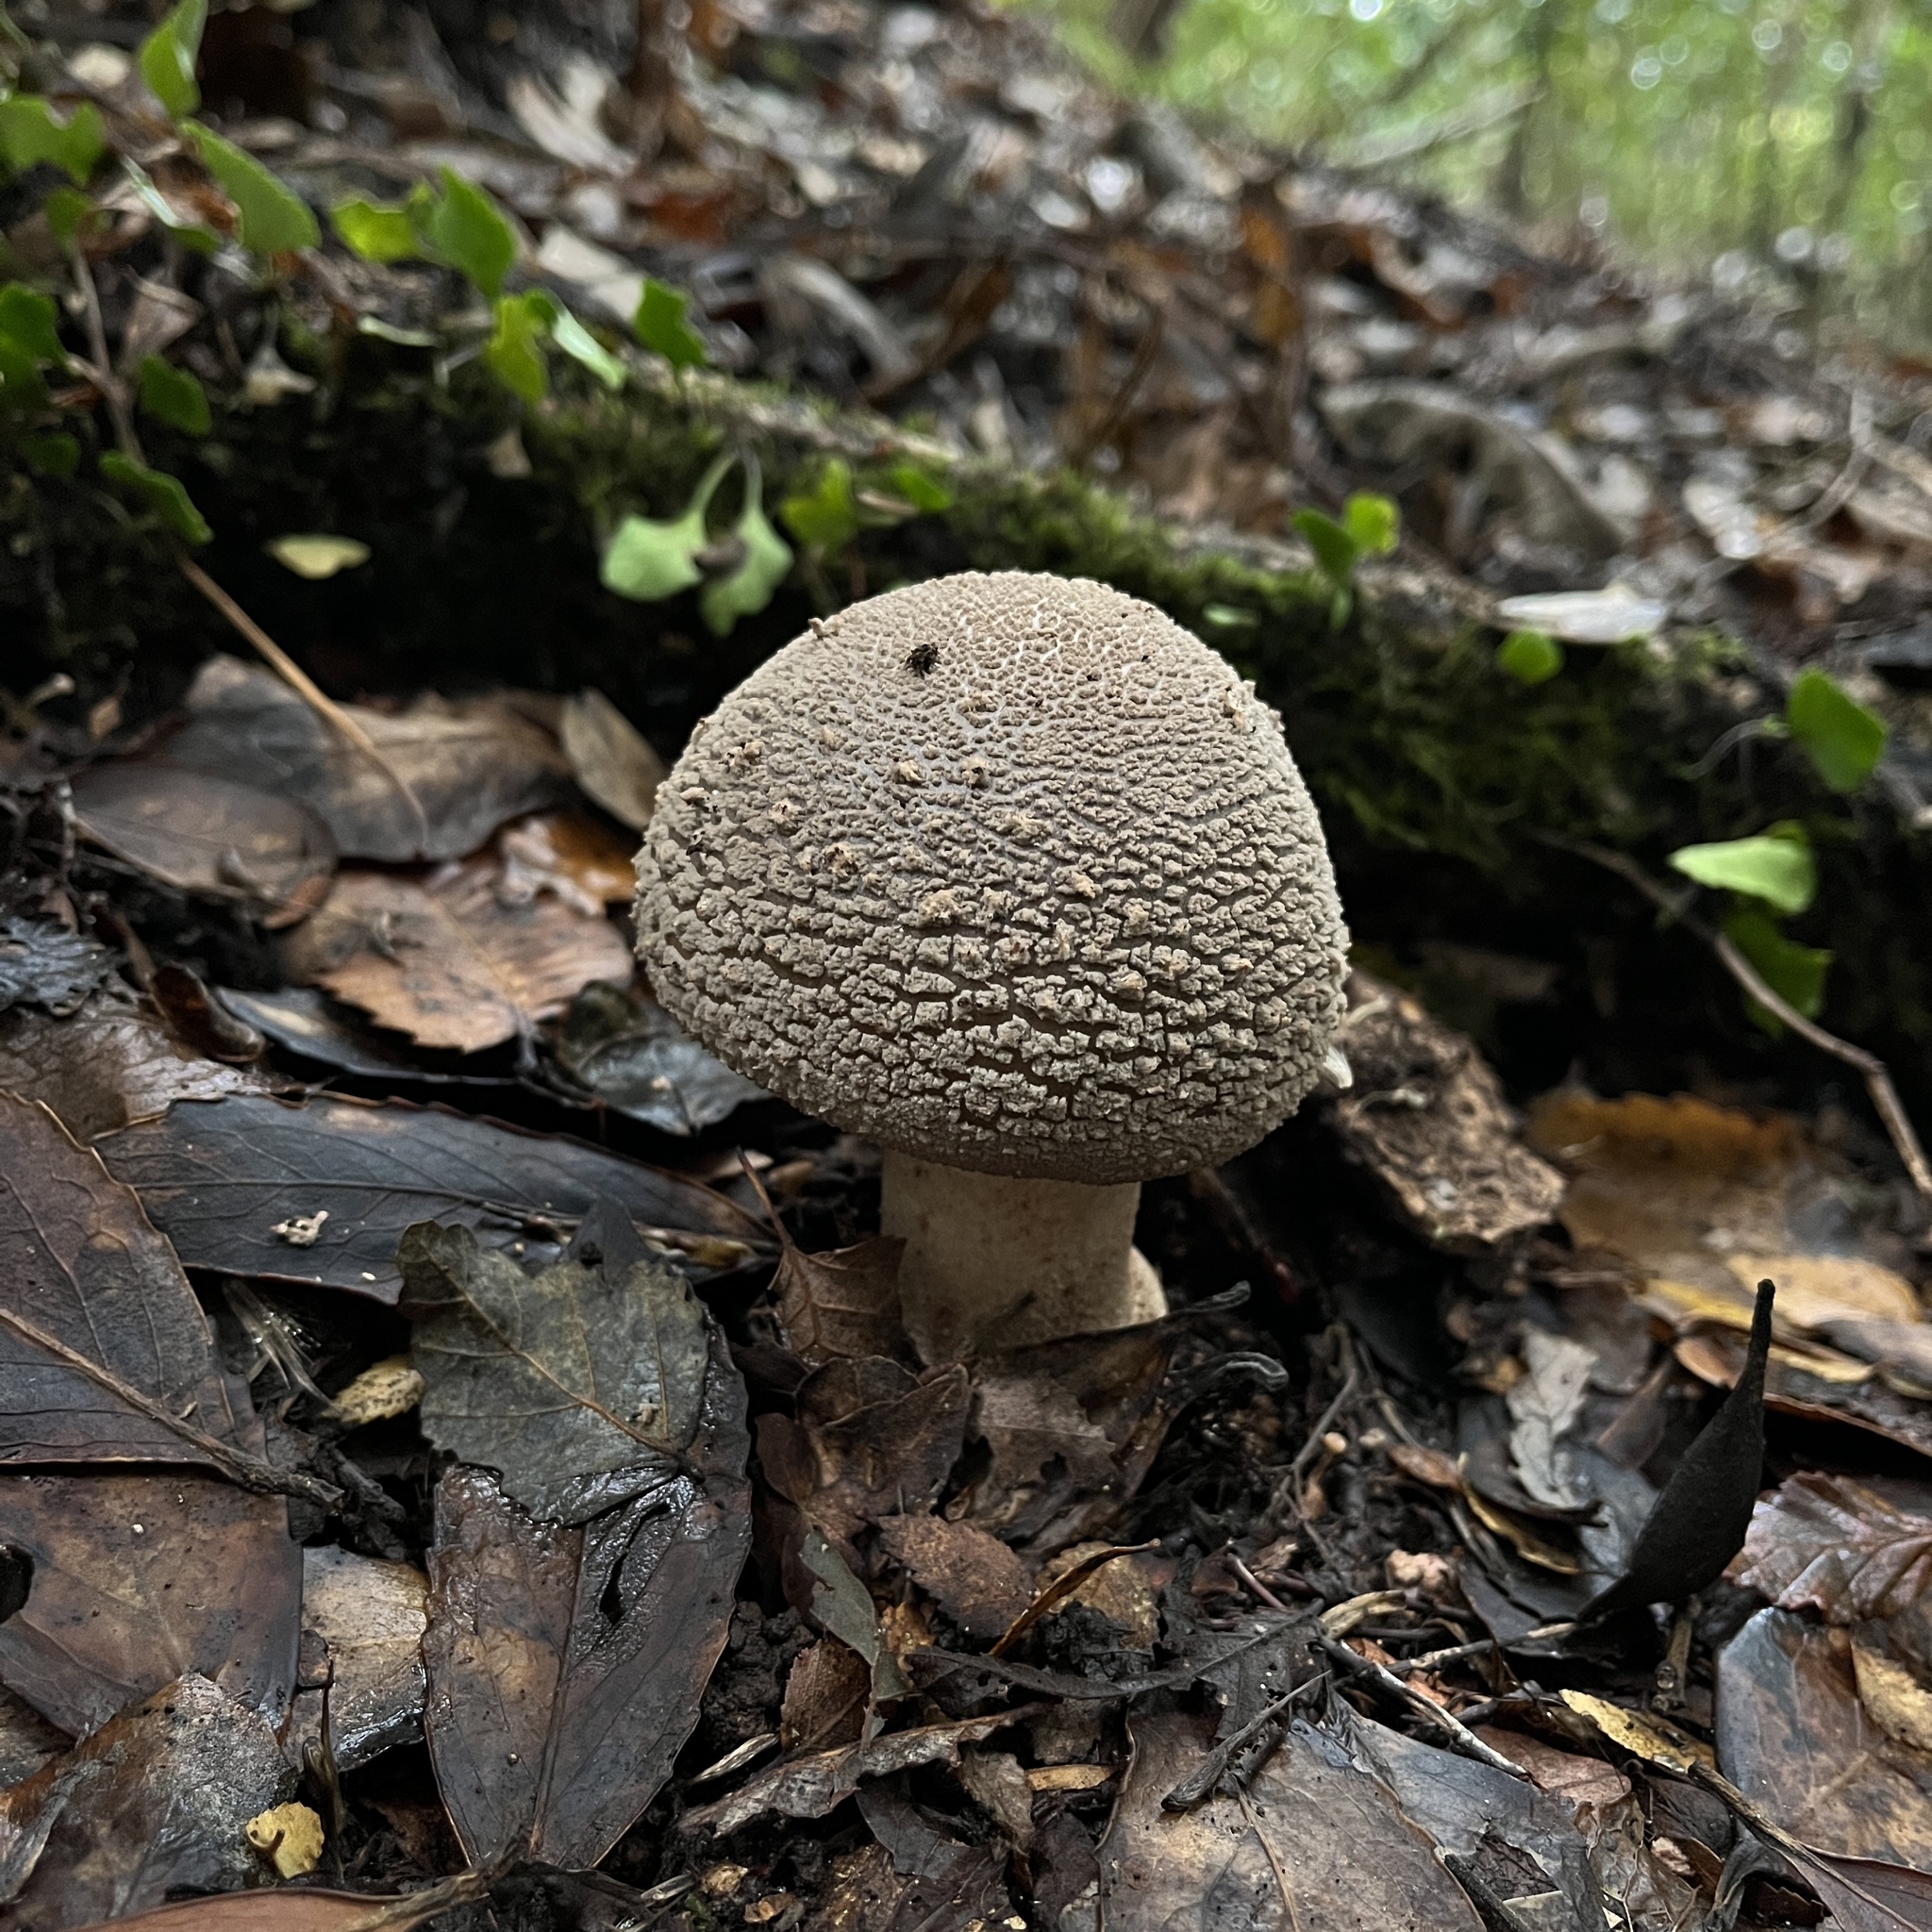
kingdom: Fungi
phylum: Basidiomycota
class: Agaricomycetes
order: Agaricales
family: Amanitaceae
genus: Amanita
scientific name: Amanita rubescens
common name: Blusher
